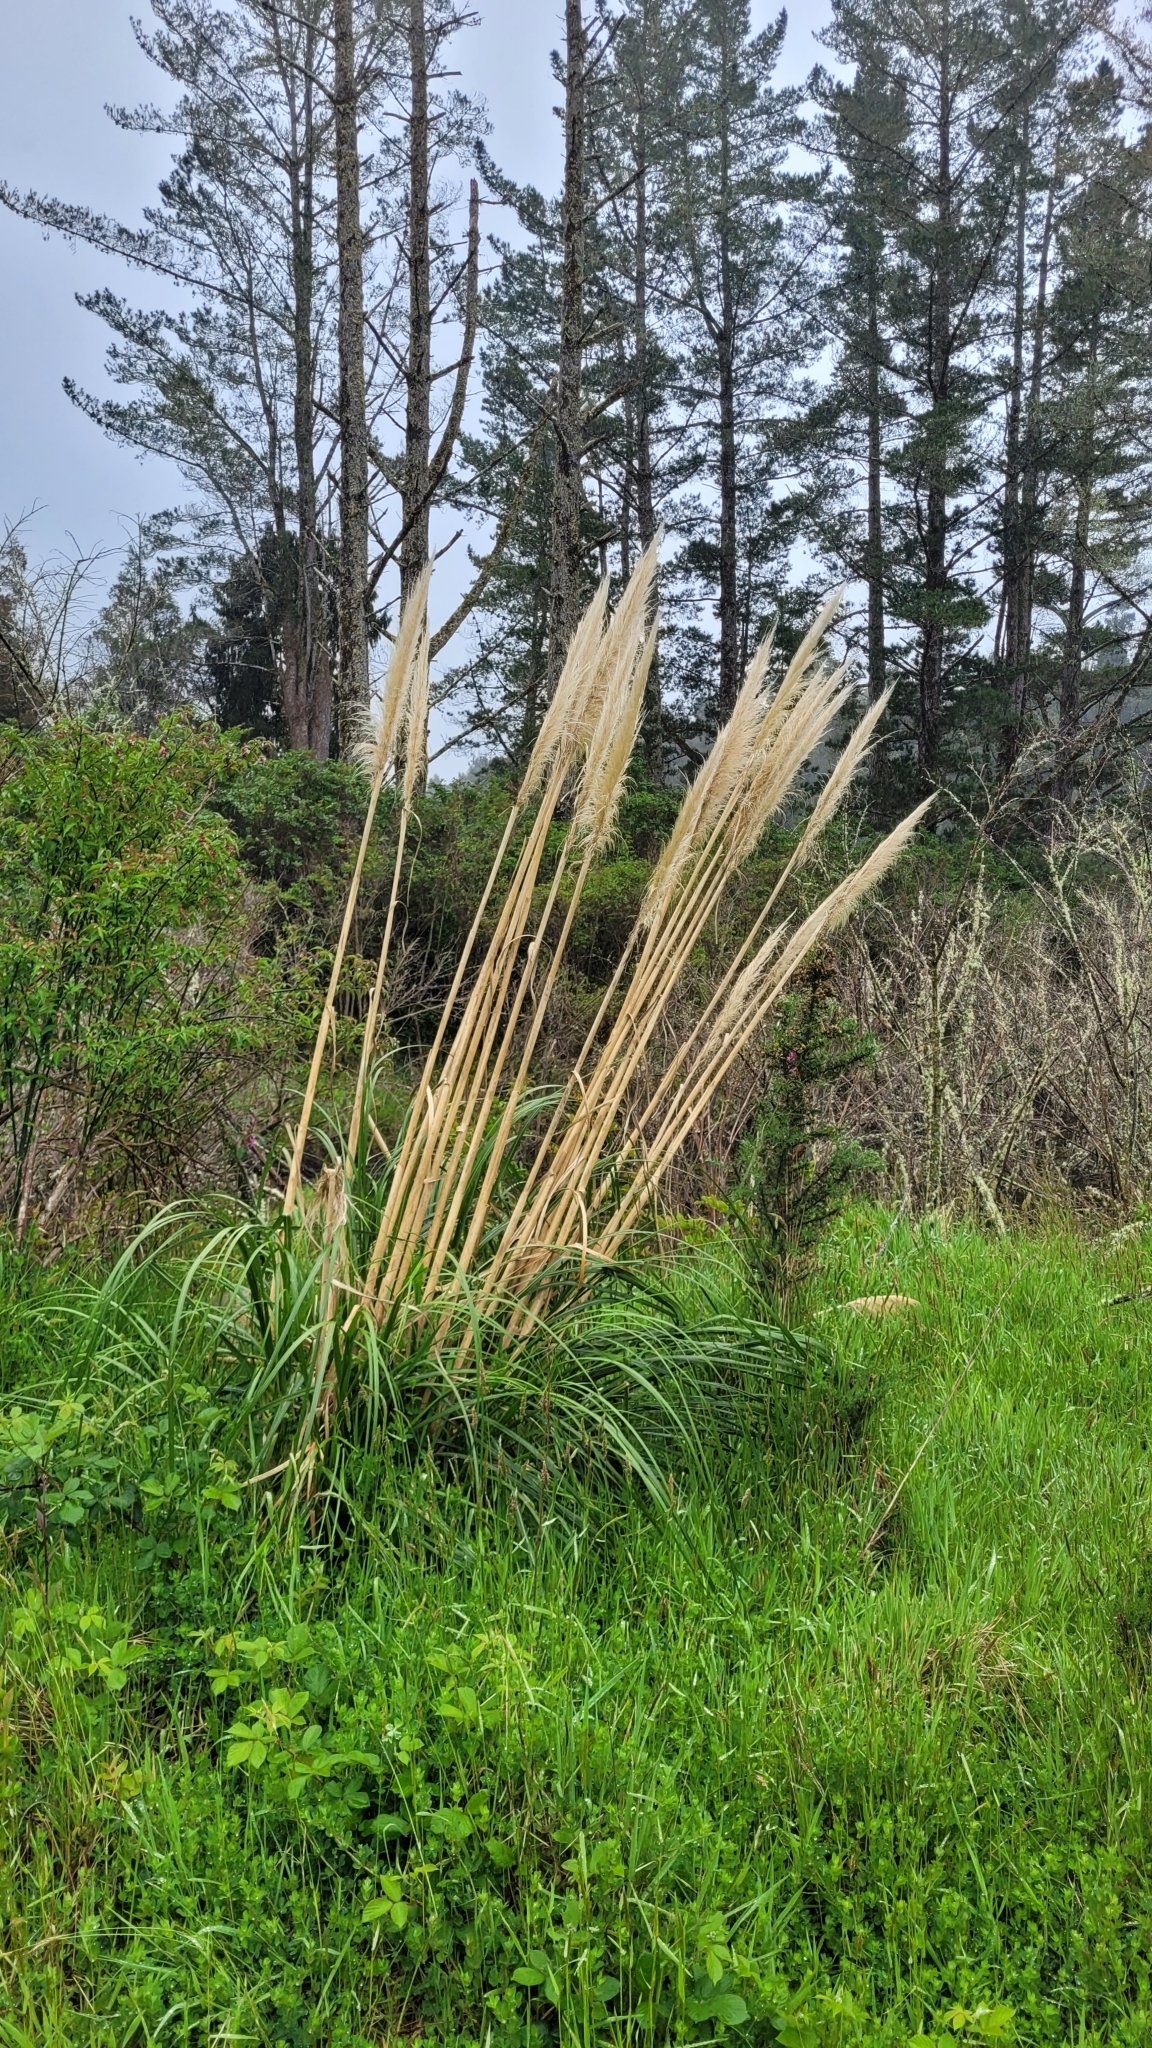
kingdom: Plantae
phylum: Tracheophyta
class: Liliopsida
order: Poales
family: Poaceae
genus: Cortaderia
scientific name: Cortaderia jubata
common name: Purple pampas grass
